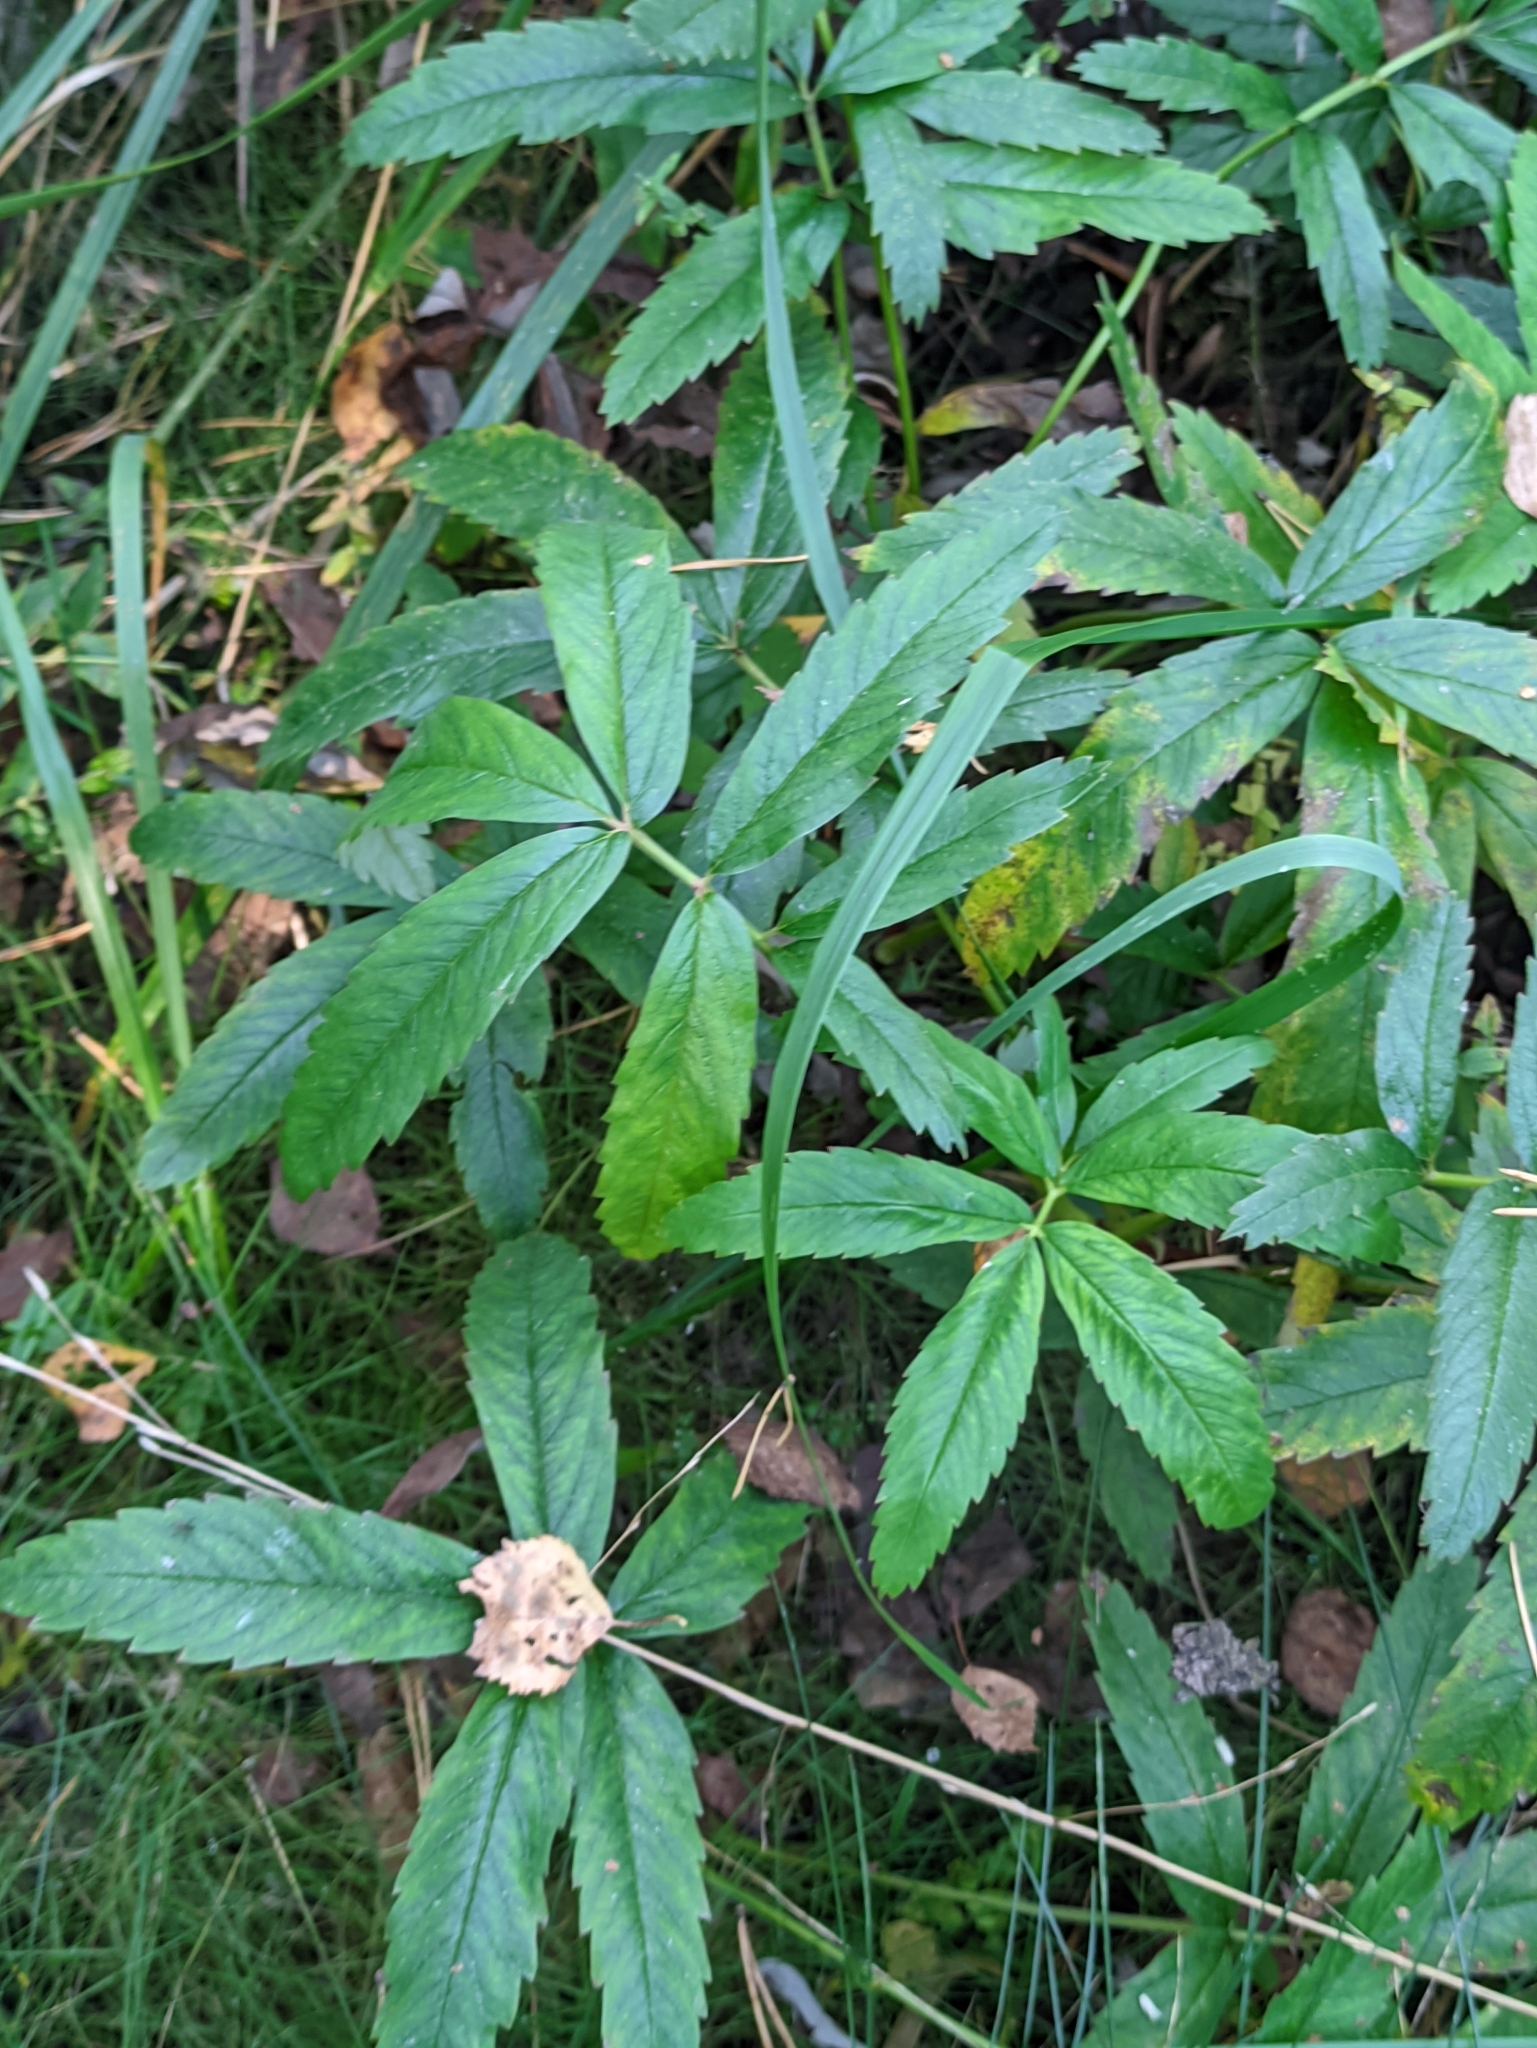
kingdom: Plantae
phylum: Tracheophyta
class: Magnoliopsida
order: Rosales
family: Rosaceae
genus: Comarum
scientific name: Comarum palustre
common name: Marsh cinquefoil
